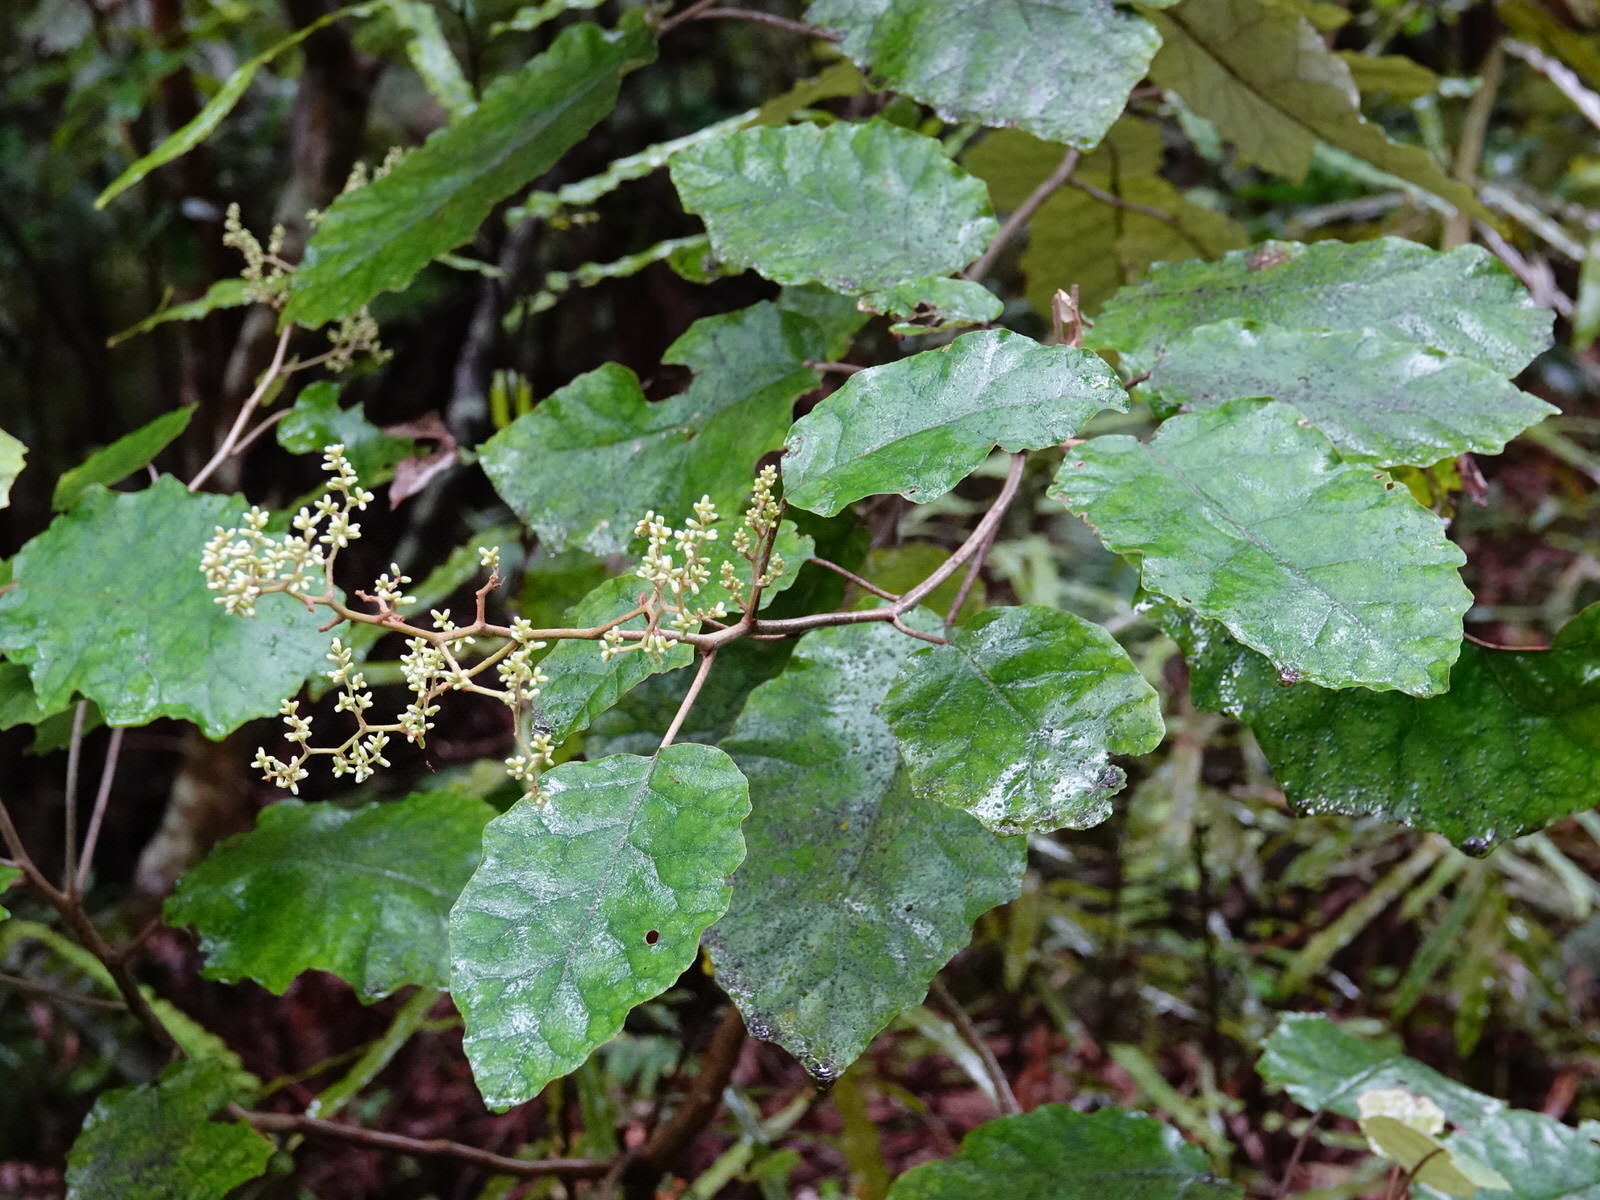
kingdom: Plantae
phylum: Tracheophyta
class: Magnoliopsida
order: Asterales
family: Asteraceae
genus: Brachyglottis
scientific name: Brachyglottis repanda
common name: Hedge ragwort
